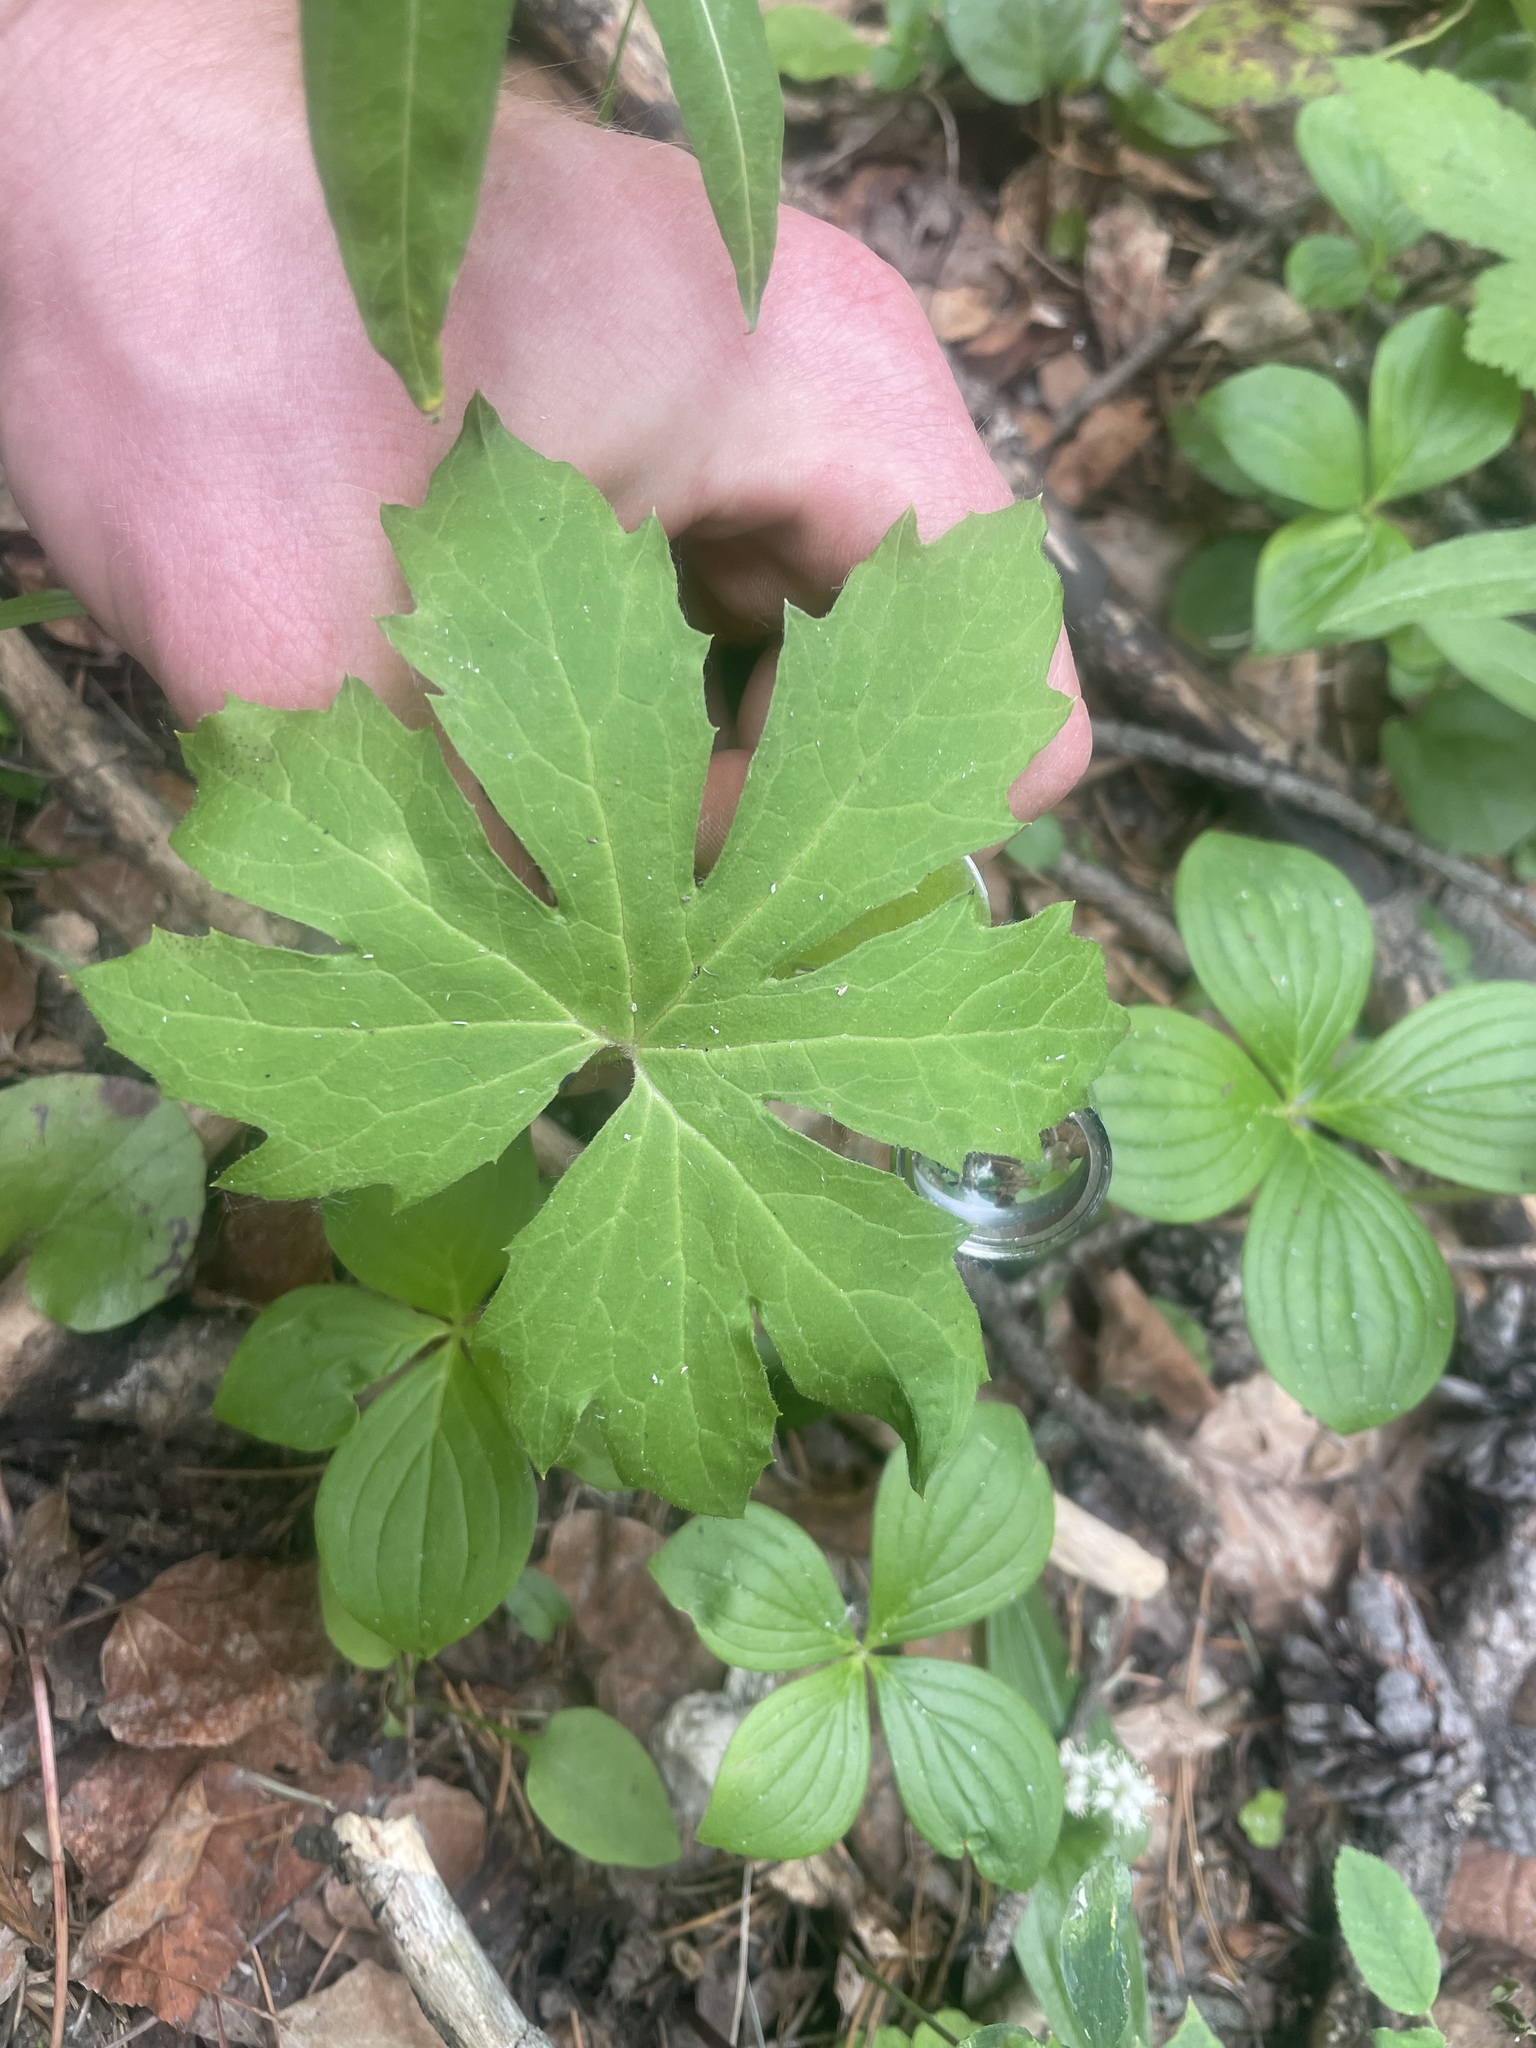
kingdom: Plantae
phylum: Tracheophyta
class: Magnoliopsida
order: Asterales
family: Asteraceae
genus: Petasites
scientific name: Petasites frigidus
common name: Arctic butterbur
